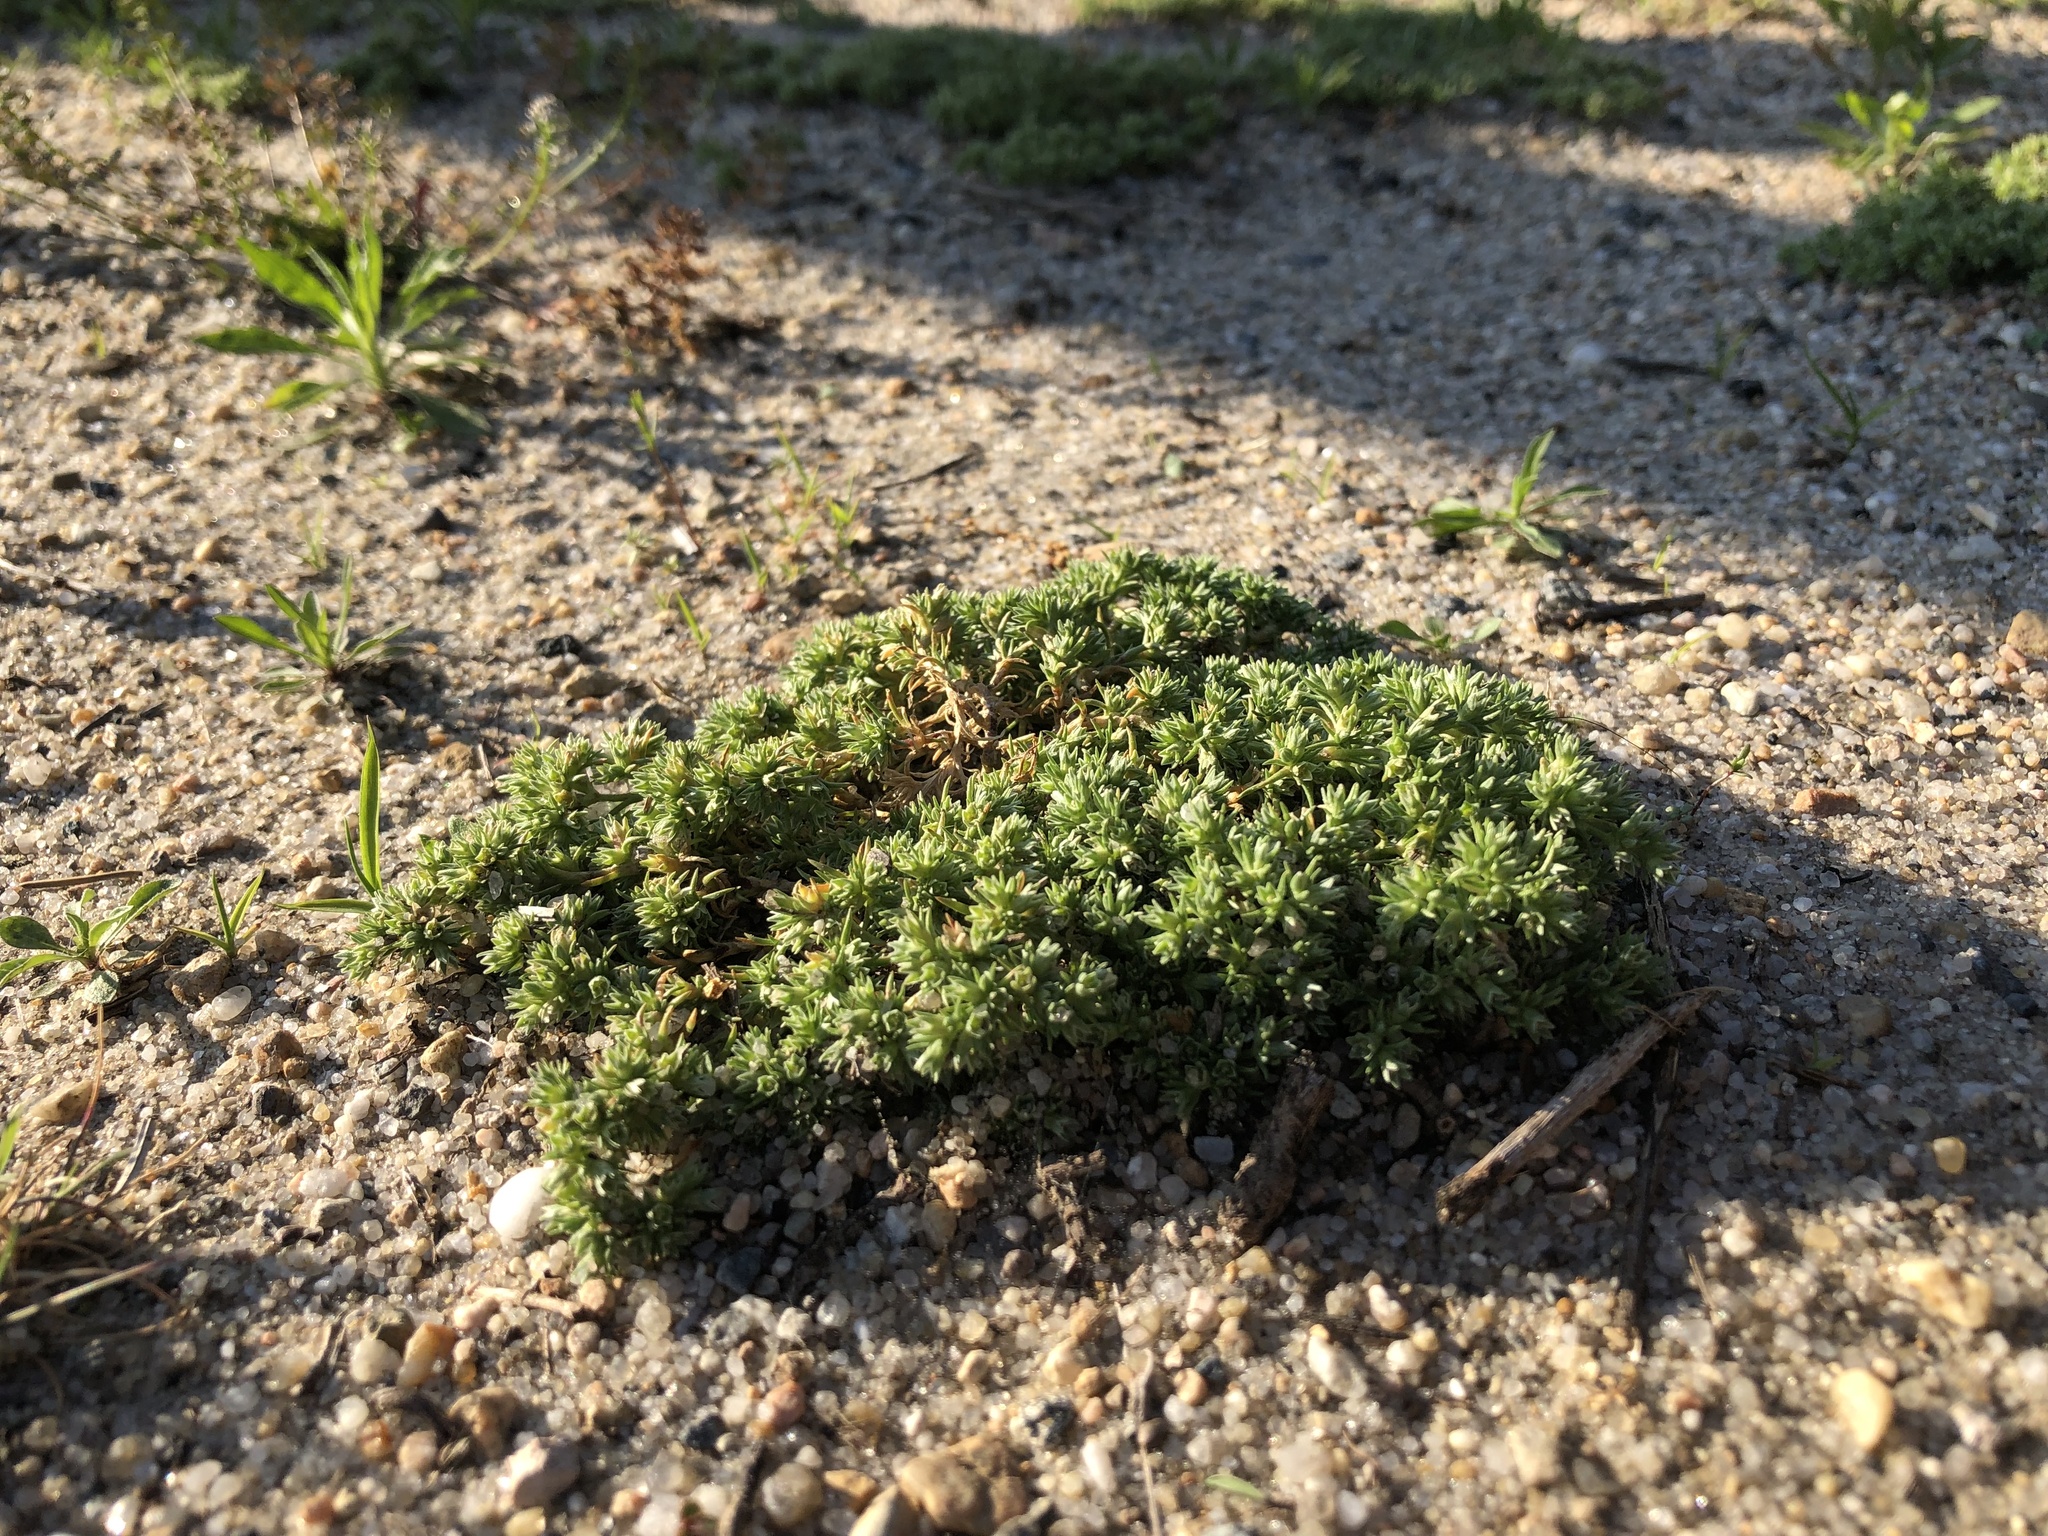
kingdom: Plantae
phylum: Tracheophyta
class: Magnoliopsida
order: Caryophyllales
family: Caryophyllaceae
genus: Scleranthus
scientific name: Scleranthus annuus
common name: Annual knawel
